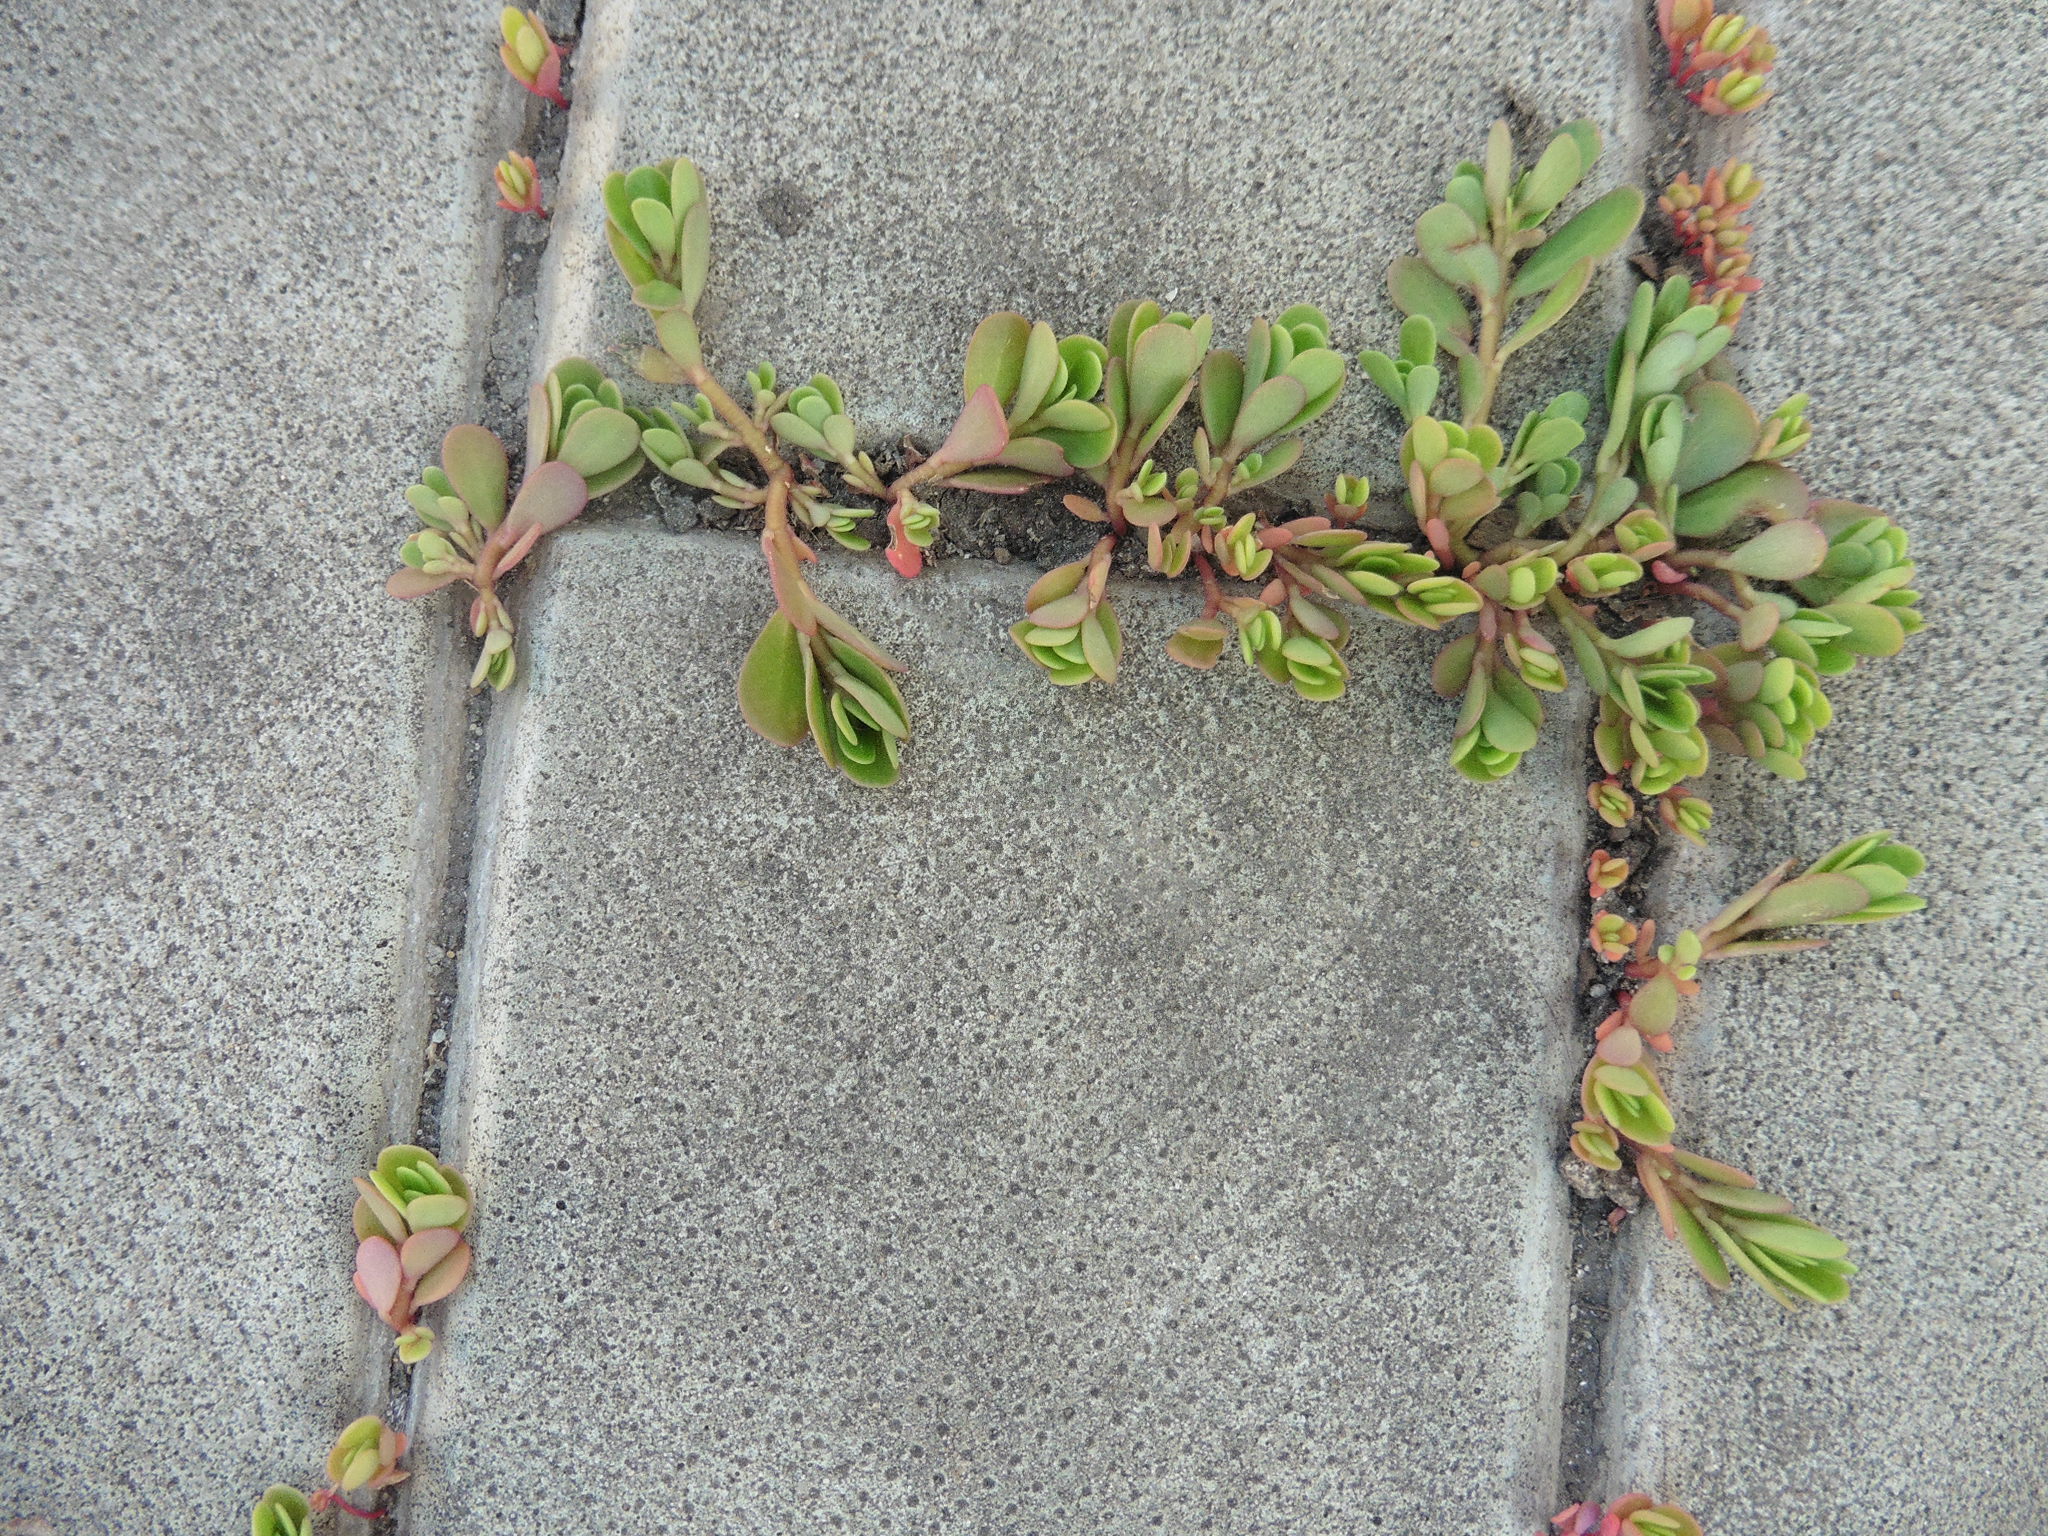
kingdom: Plantae
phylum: Tracheophyta
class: Magnoliopsida
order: Caryophyllales
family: Portulacaceae
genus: Portulaca
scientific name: Portulaca oleracea
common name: Common purslane
